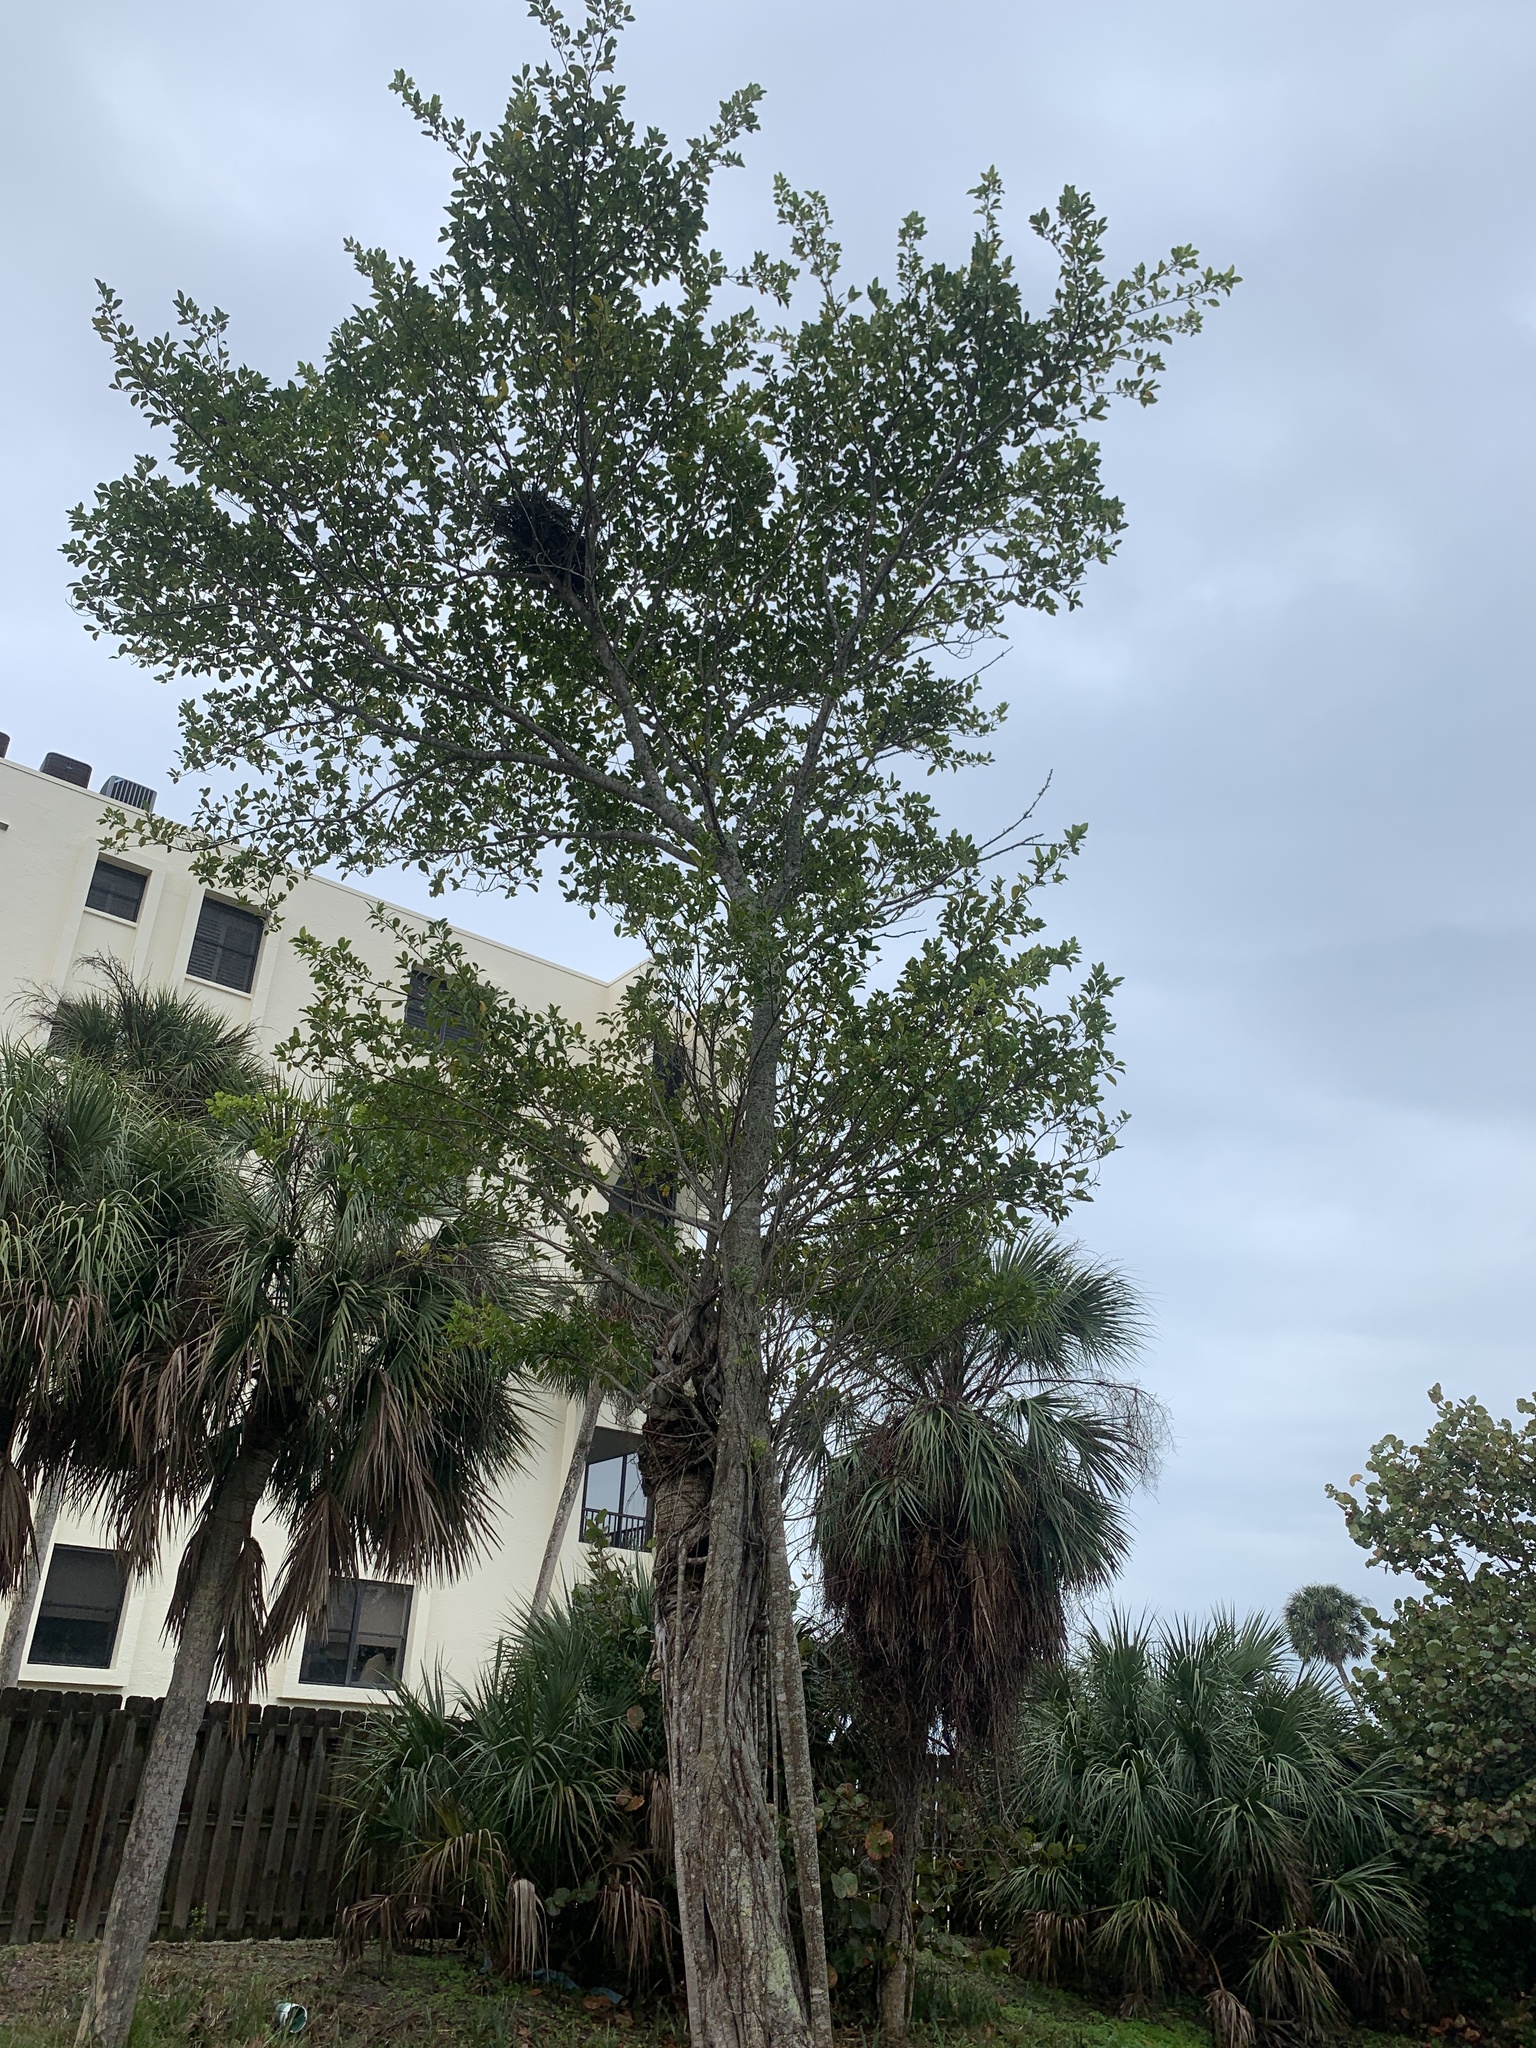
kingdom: Plantae
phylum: Tracheophyta
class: Magnoliopsida
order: Rosales
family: Moraceae
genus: Ficus
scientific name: Ficus microcarpa
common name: Chinese banyan
